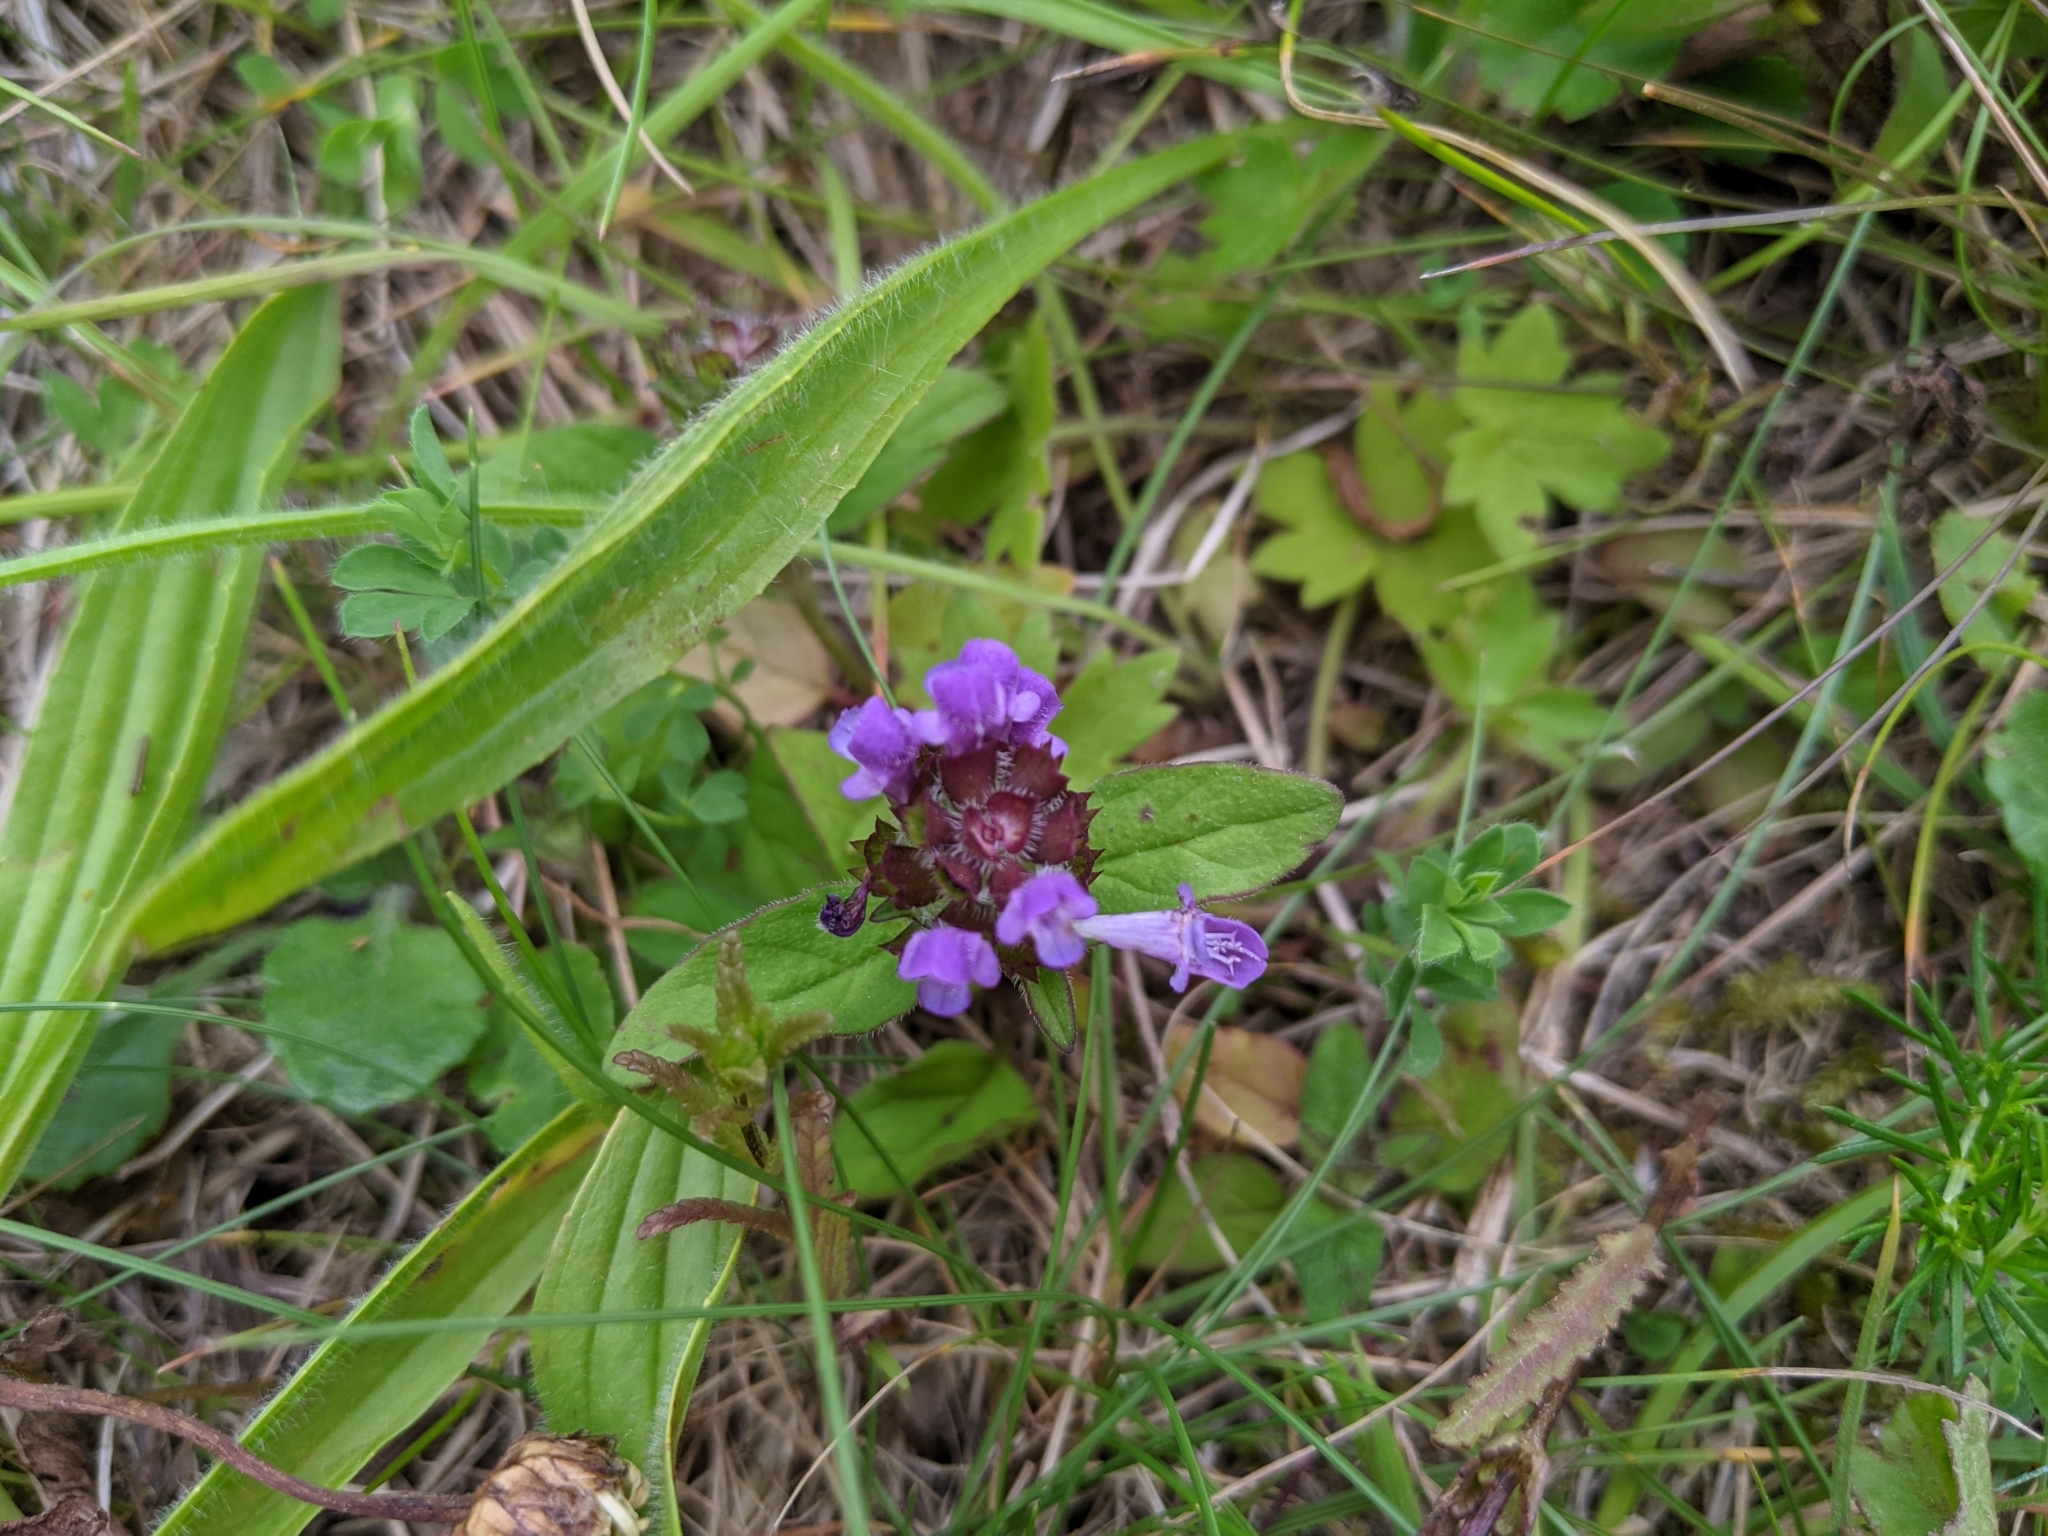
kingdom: Plantae
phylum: Tracheophyta
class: Magnoliopsida
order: Lamiales
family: Lamiaceae
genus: Prunella
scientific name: Prunella vulgaris
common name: Heal-all
